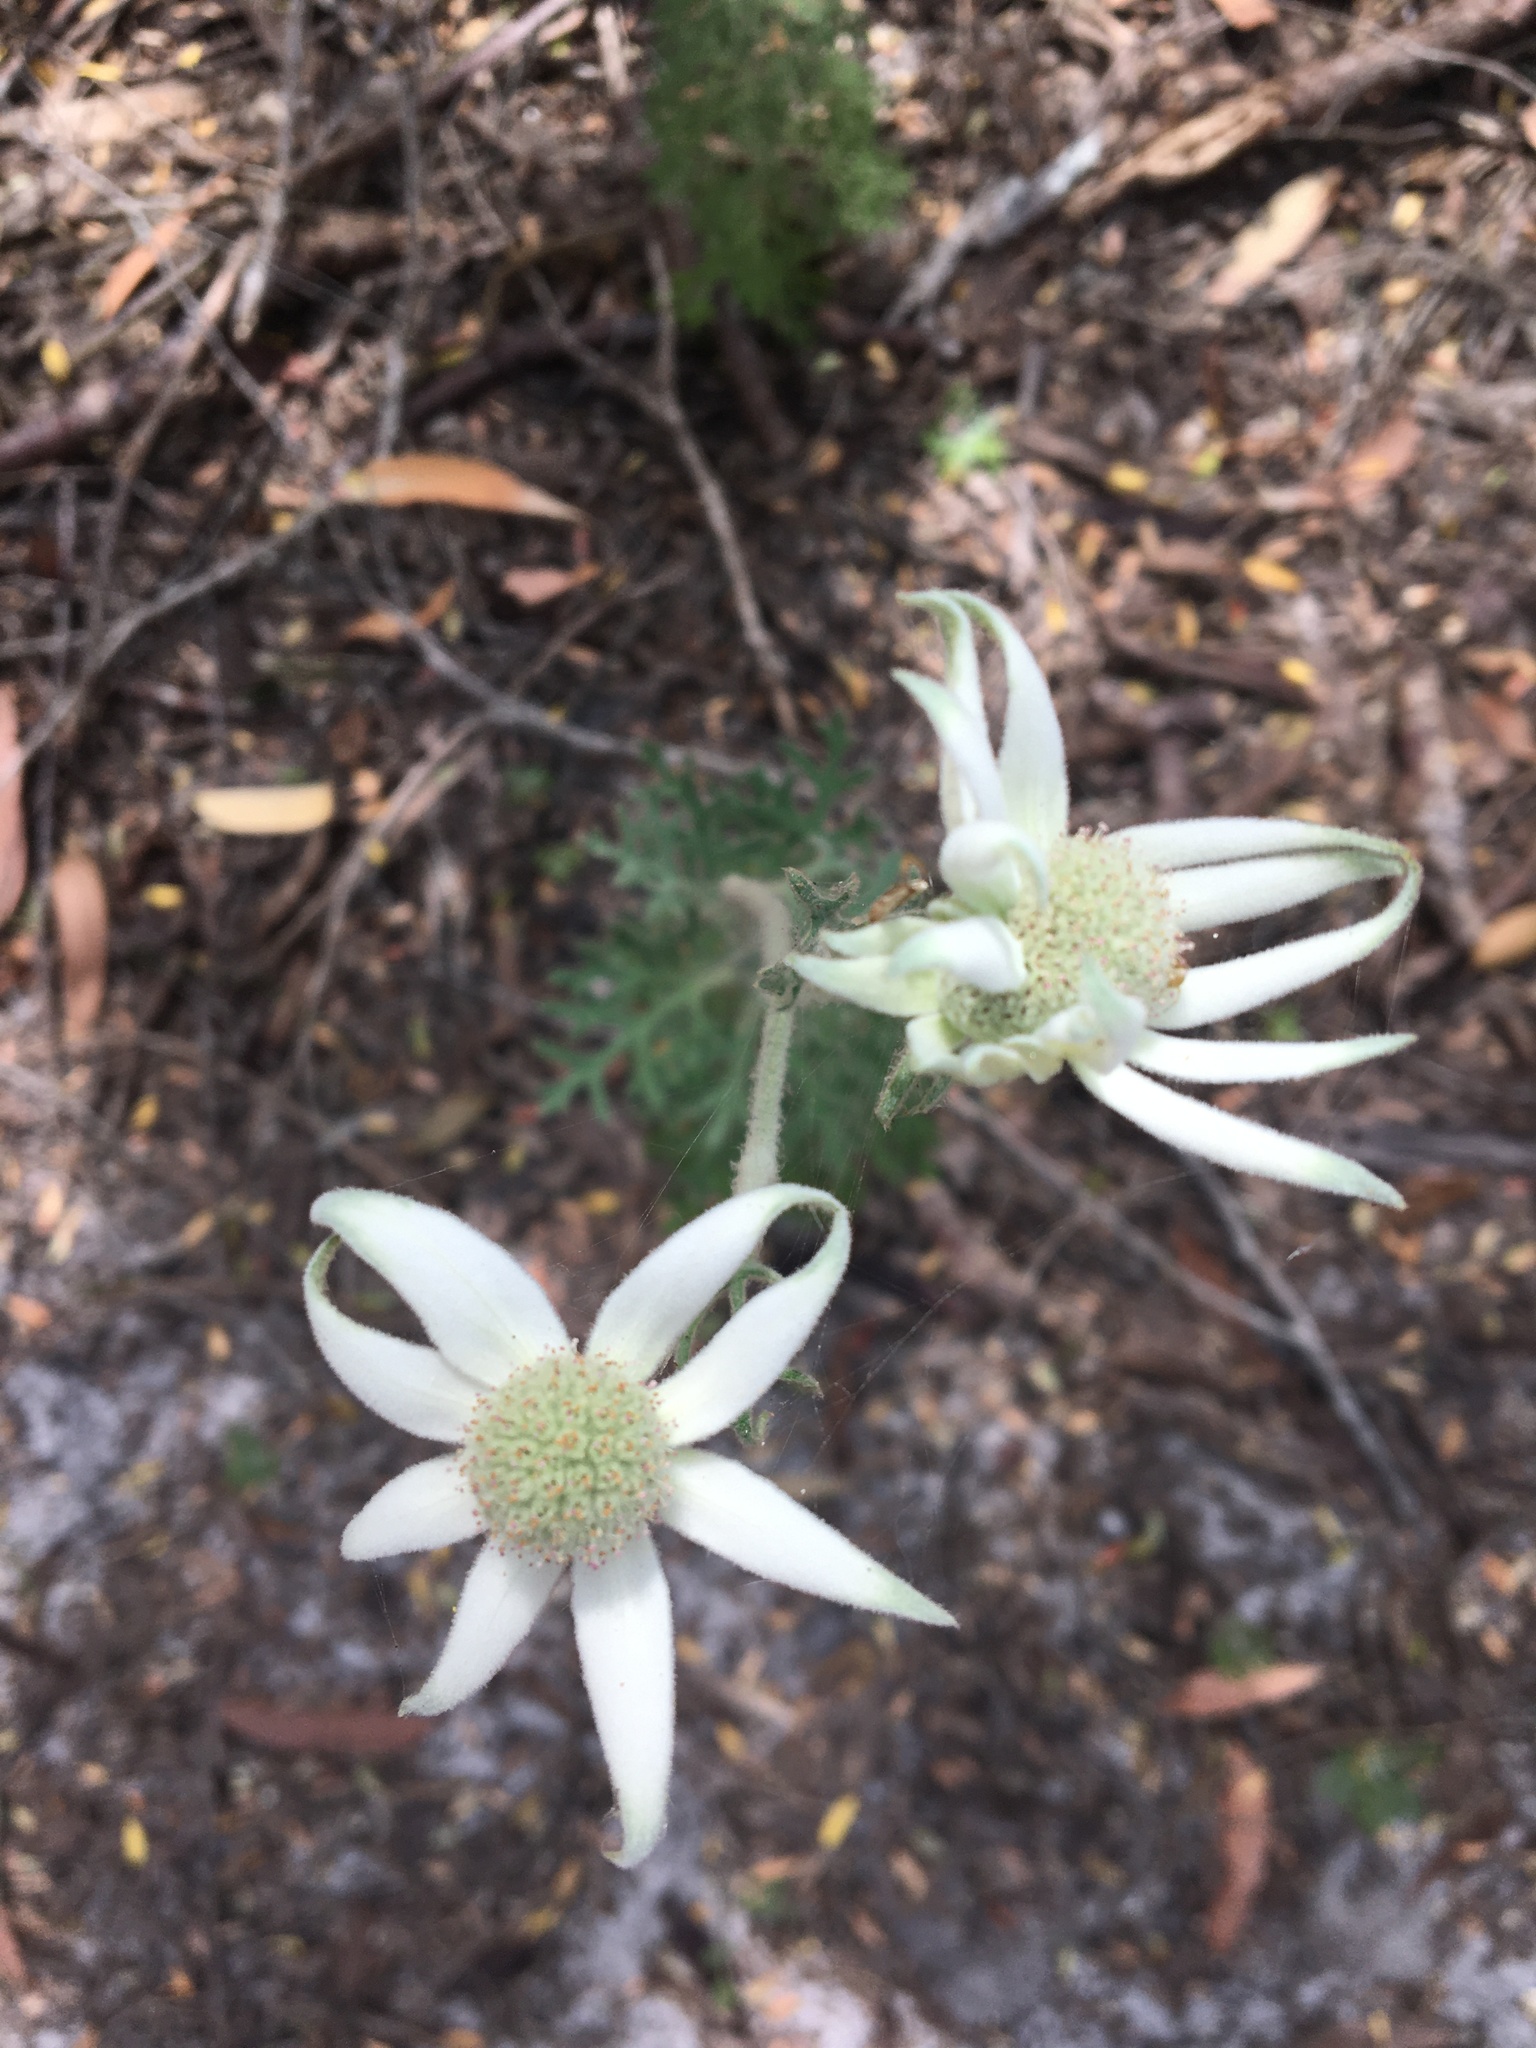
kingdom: Plantae
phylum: Tracheophyta
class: Magnoliopsida
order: Apiales
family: Apiaceae
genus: Actinotus
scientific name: Actinotus helianthi
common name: Flannel-flower
